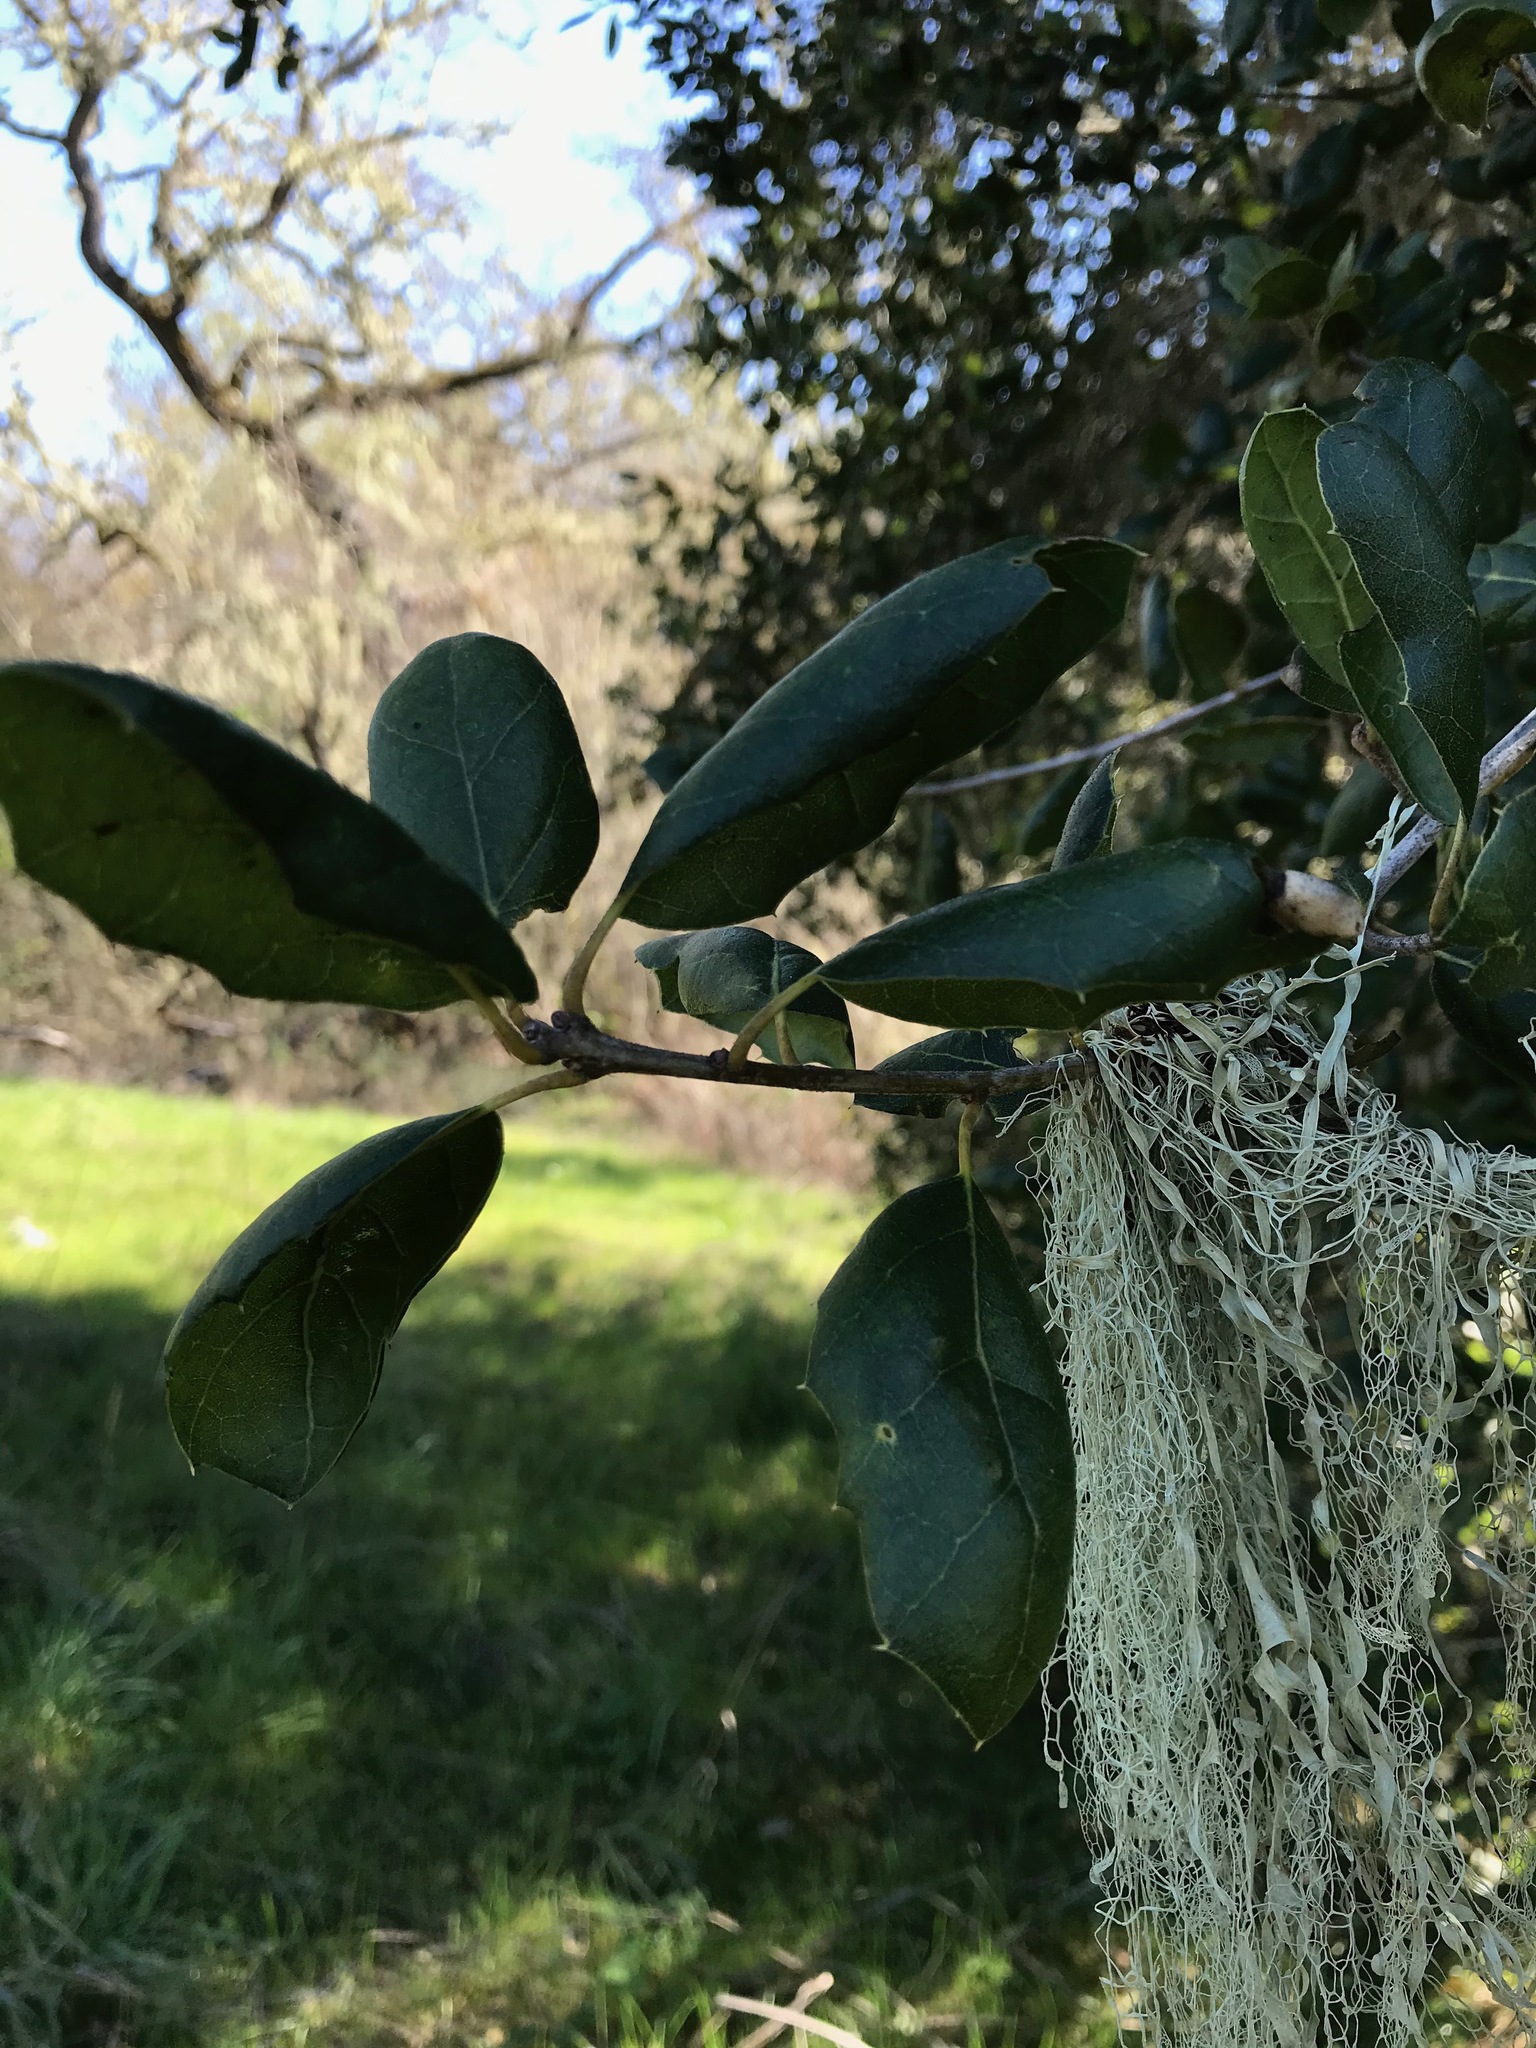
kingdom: Plantae
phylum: Tracheophyta
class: Magnoliopsida
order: Fagales
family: Fagaceae
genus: Quercus
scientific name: Quercus agrifolia
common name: California live oak
